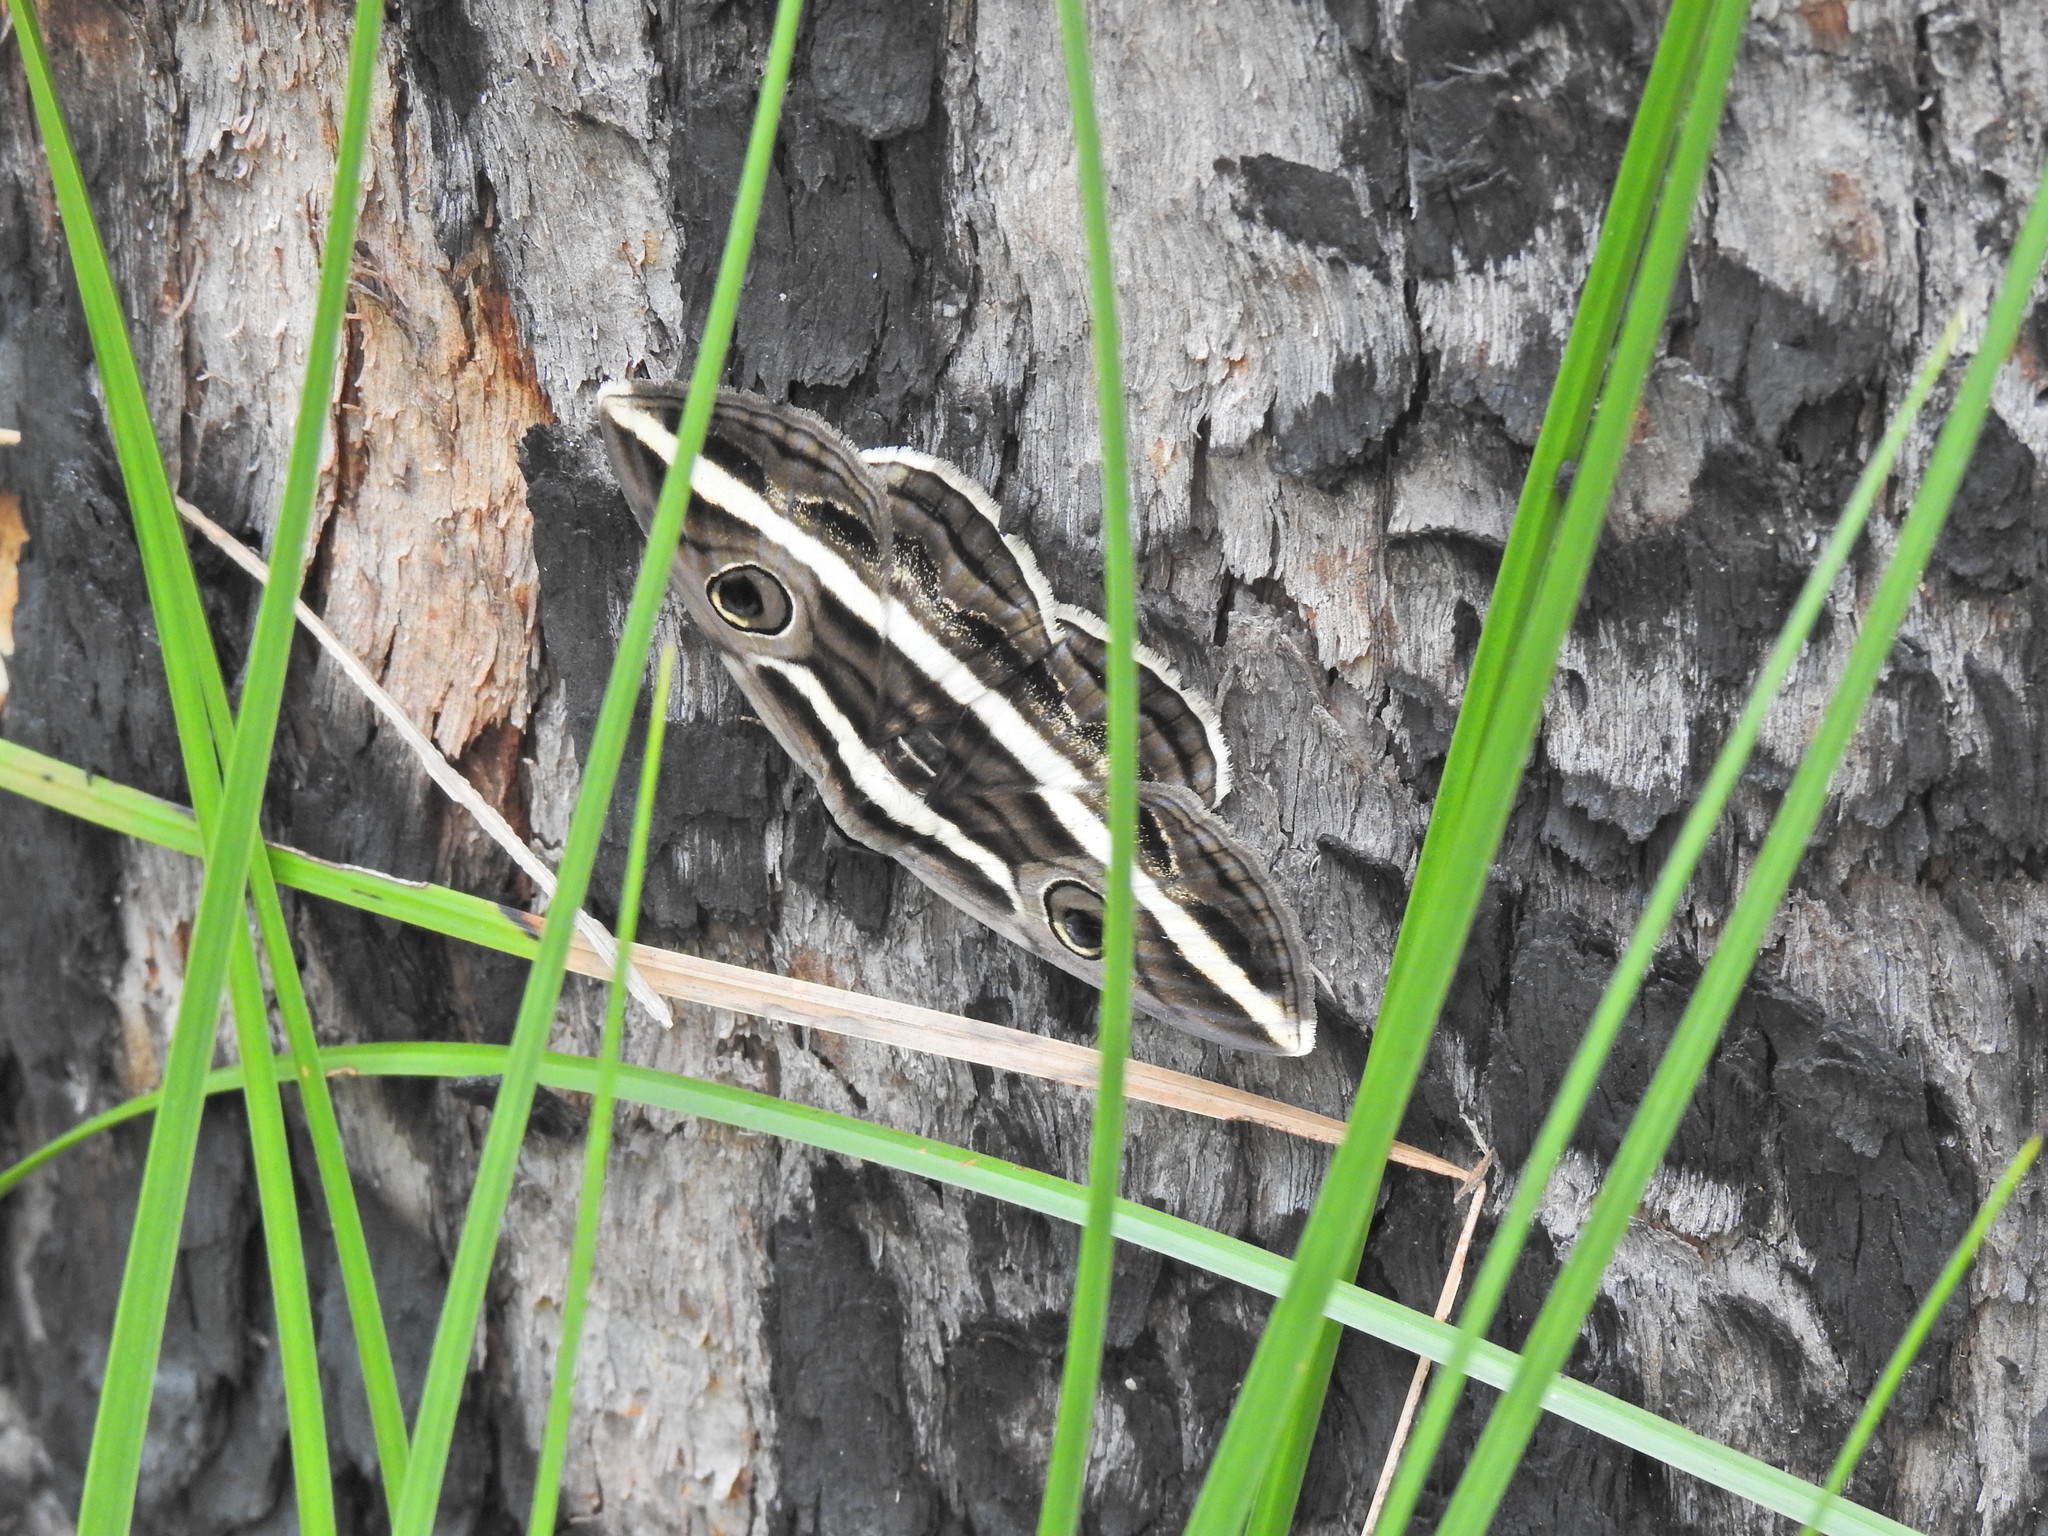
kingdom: Animalia
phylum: Arthropoda
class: Insecta
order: Lepidoptera
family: Erebidae
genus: Donuca
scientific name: Donuca rubropicta
